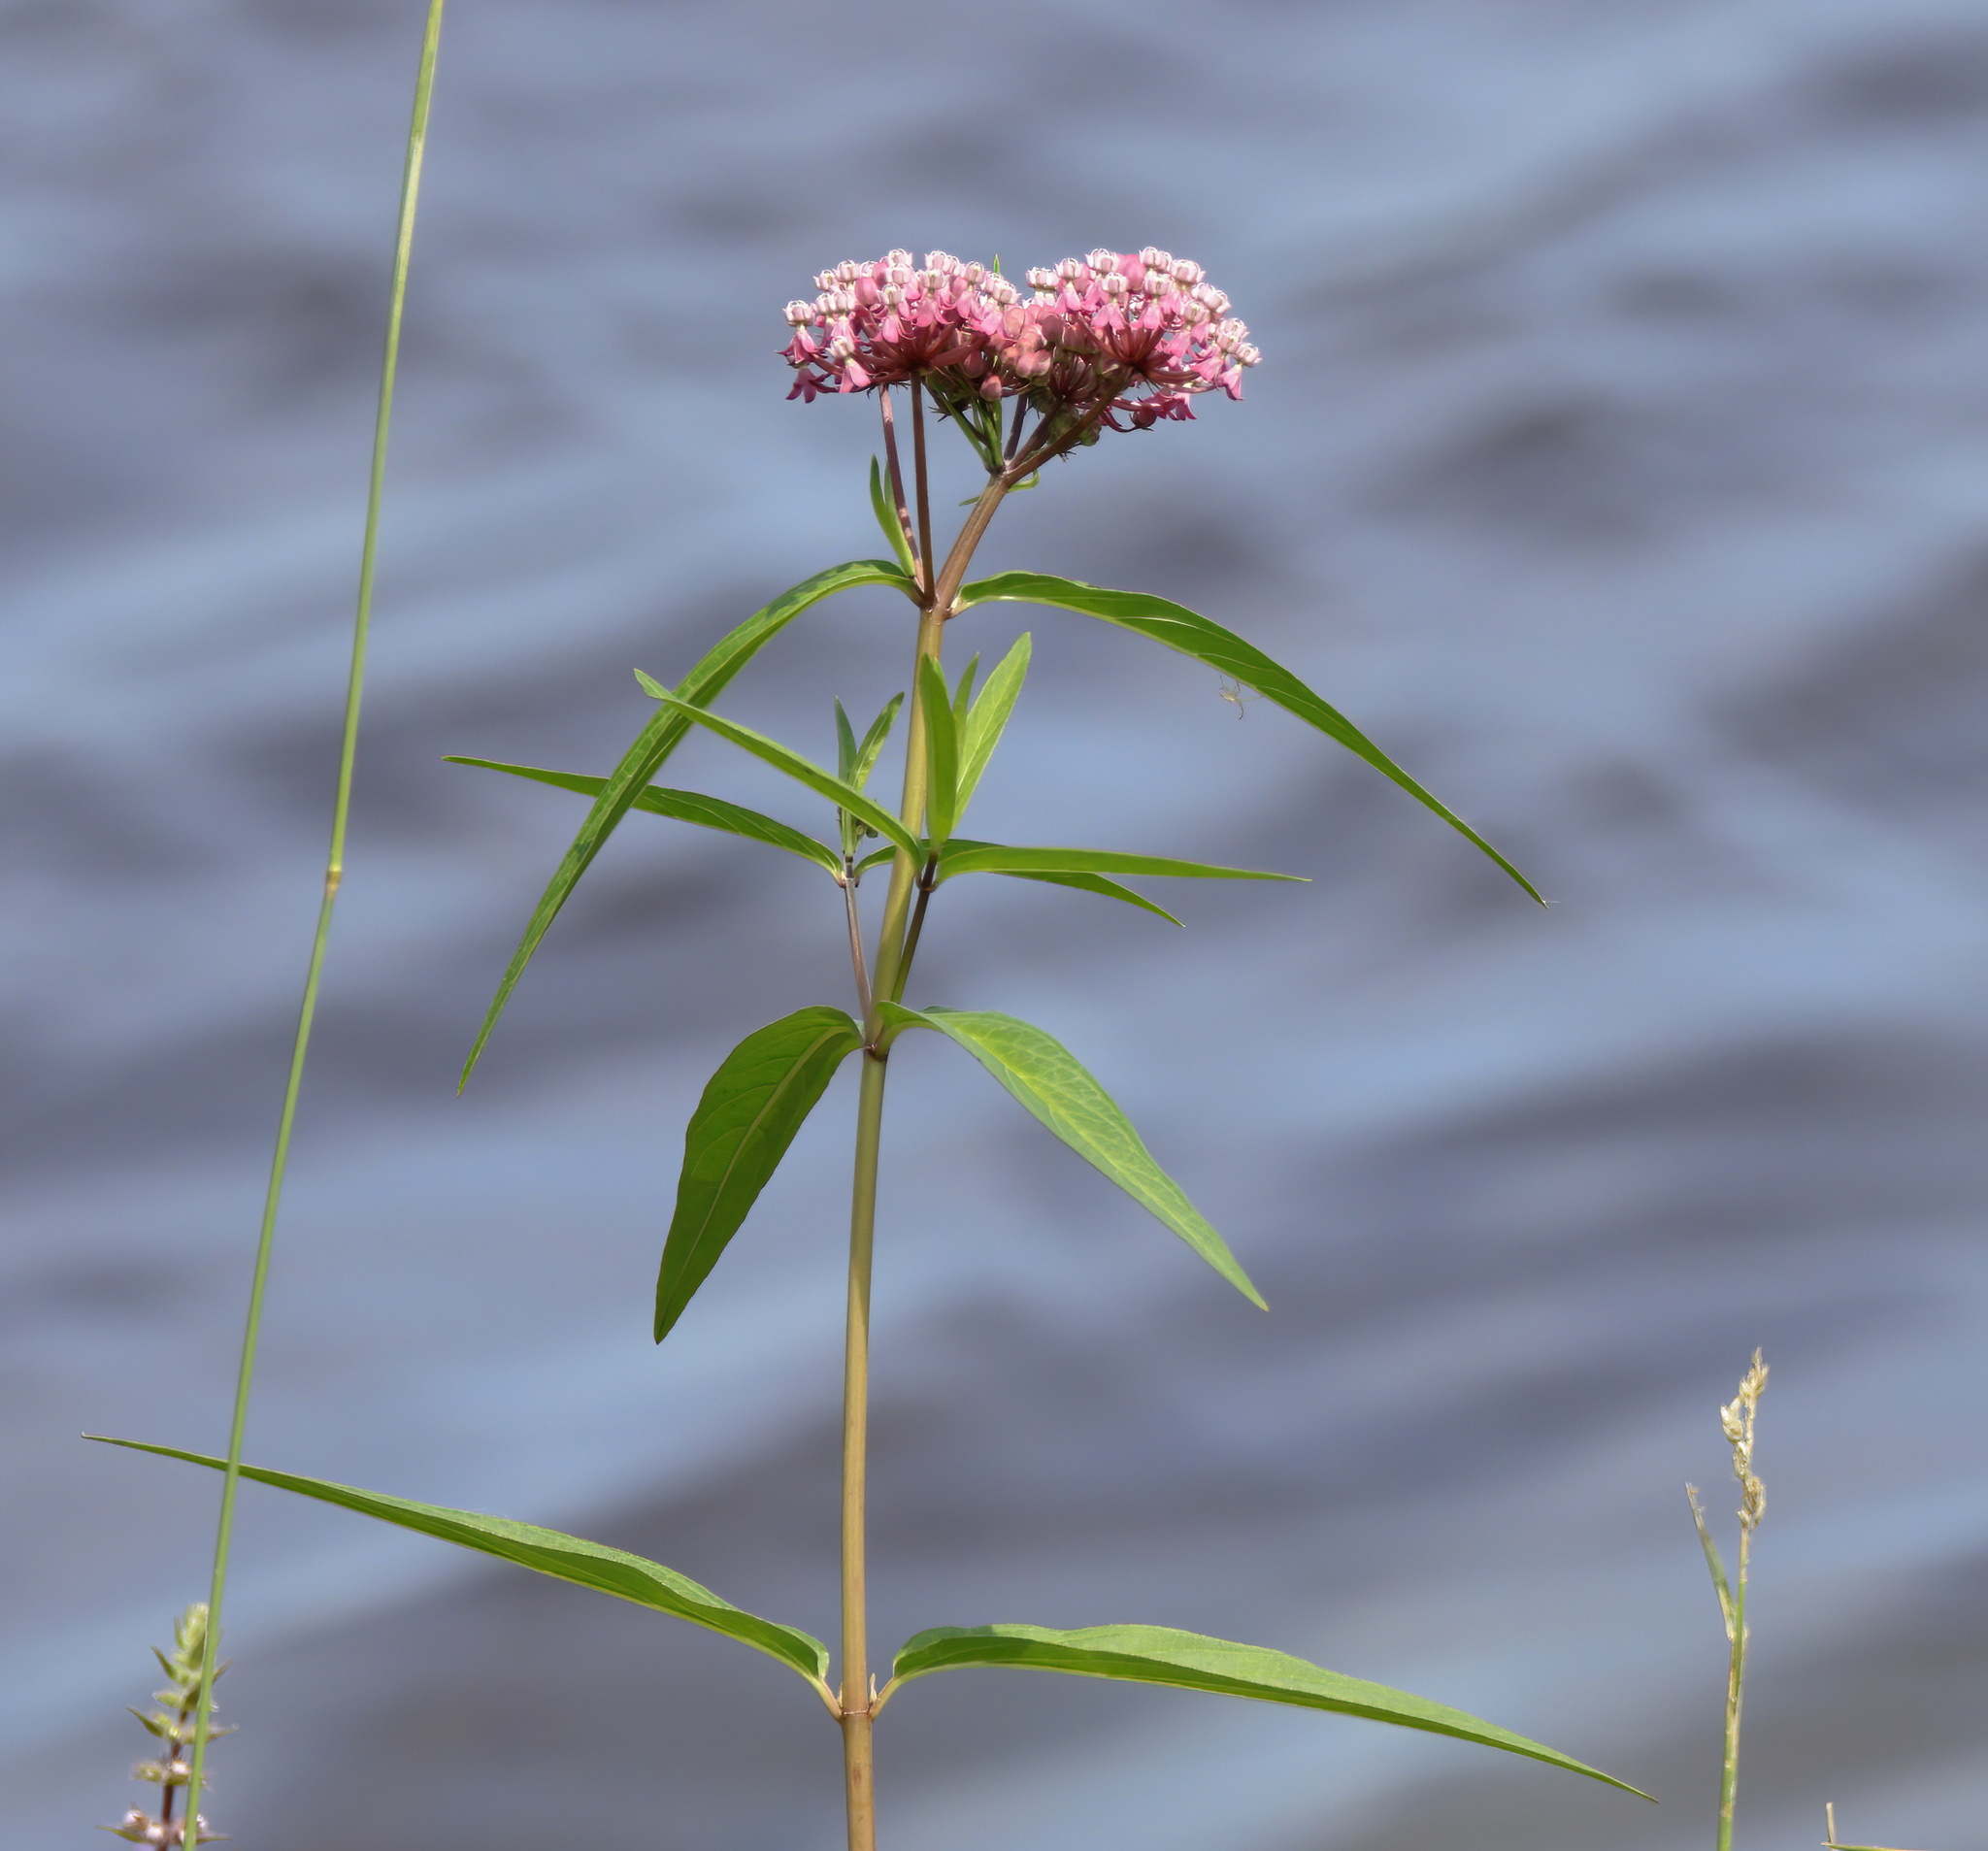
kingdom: Plantae
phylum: Tracheophyta
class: Magnoliopsida
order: Gentianales
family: Apocynaceae
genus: Asclepias
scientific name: Asclepias incarnata
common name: Swamp milkweed
